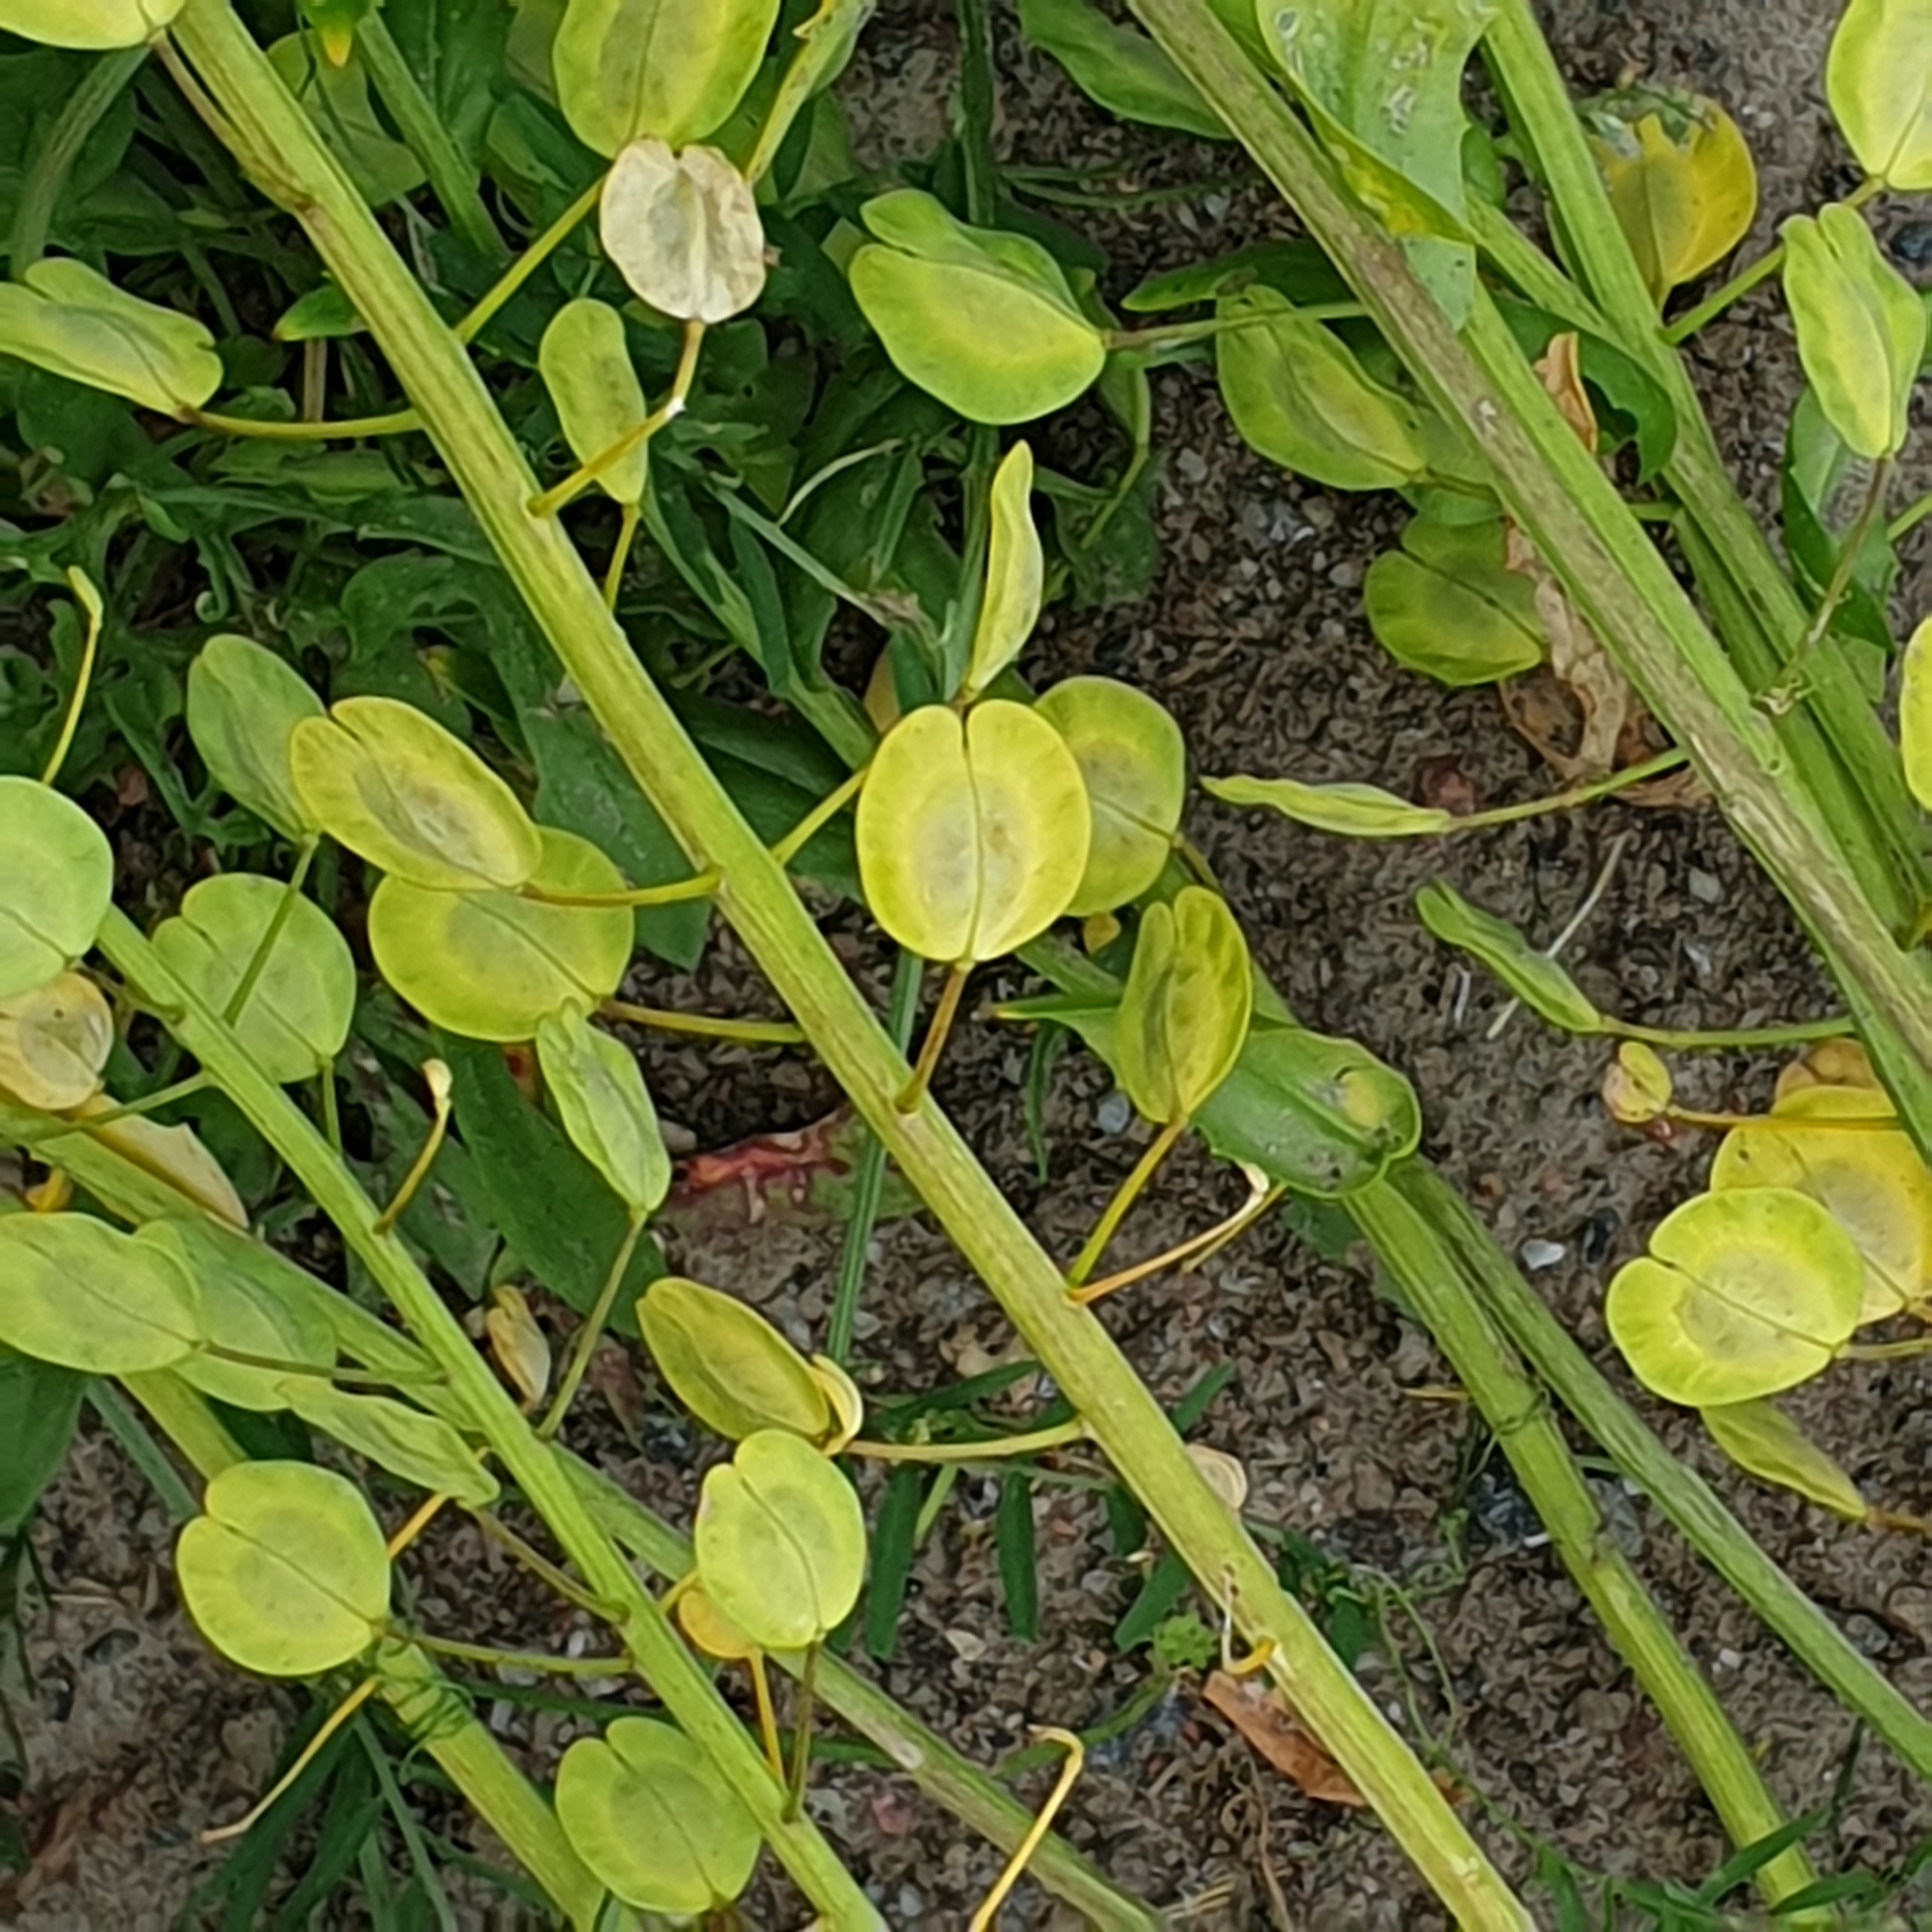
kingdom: Plantae
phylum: Tracheophyta
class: Magnoliopsida
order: Brassicales
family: Brassicaceae
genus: Thlaspi
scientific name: Thlaspi arvense
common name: Field pennycress
